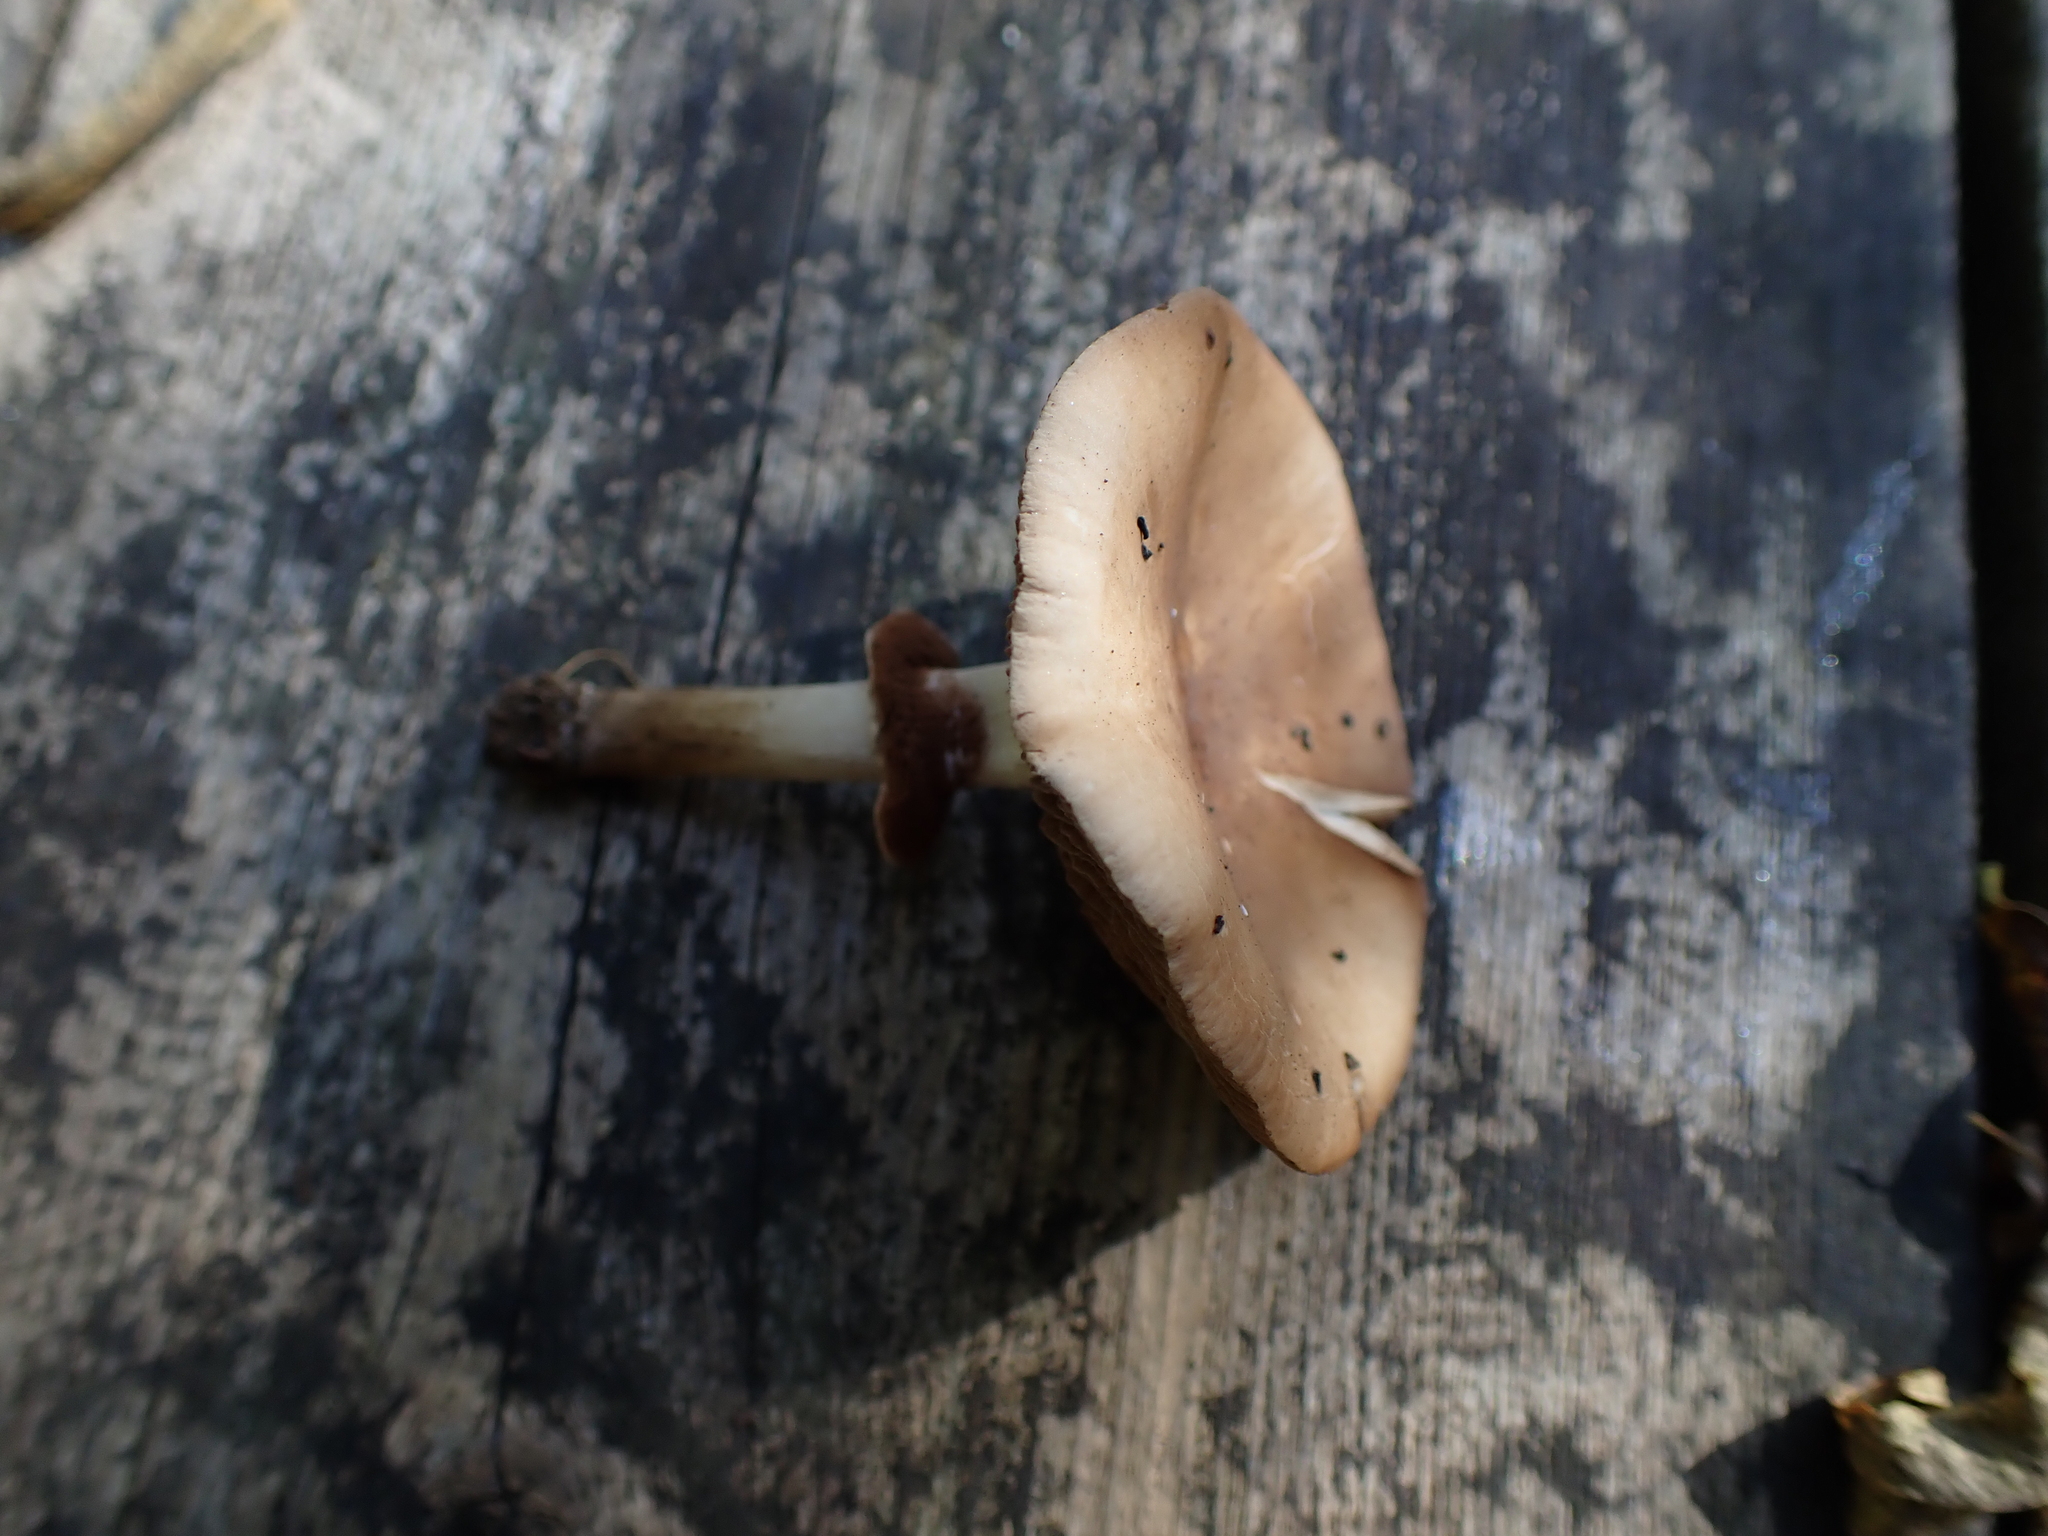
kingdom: Fungi
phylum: Basidiomycota
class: Agaricomycetes
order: Agaricales
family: Tubariaceae
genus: Cyclocybe
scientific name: Cyclocybe erebia
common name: Dark fieldcap
